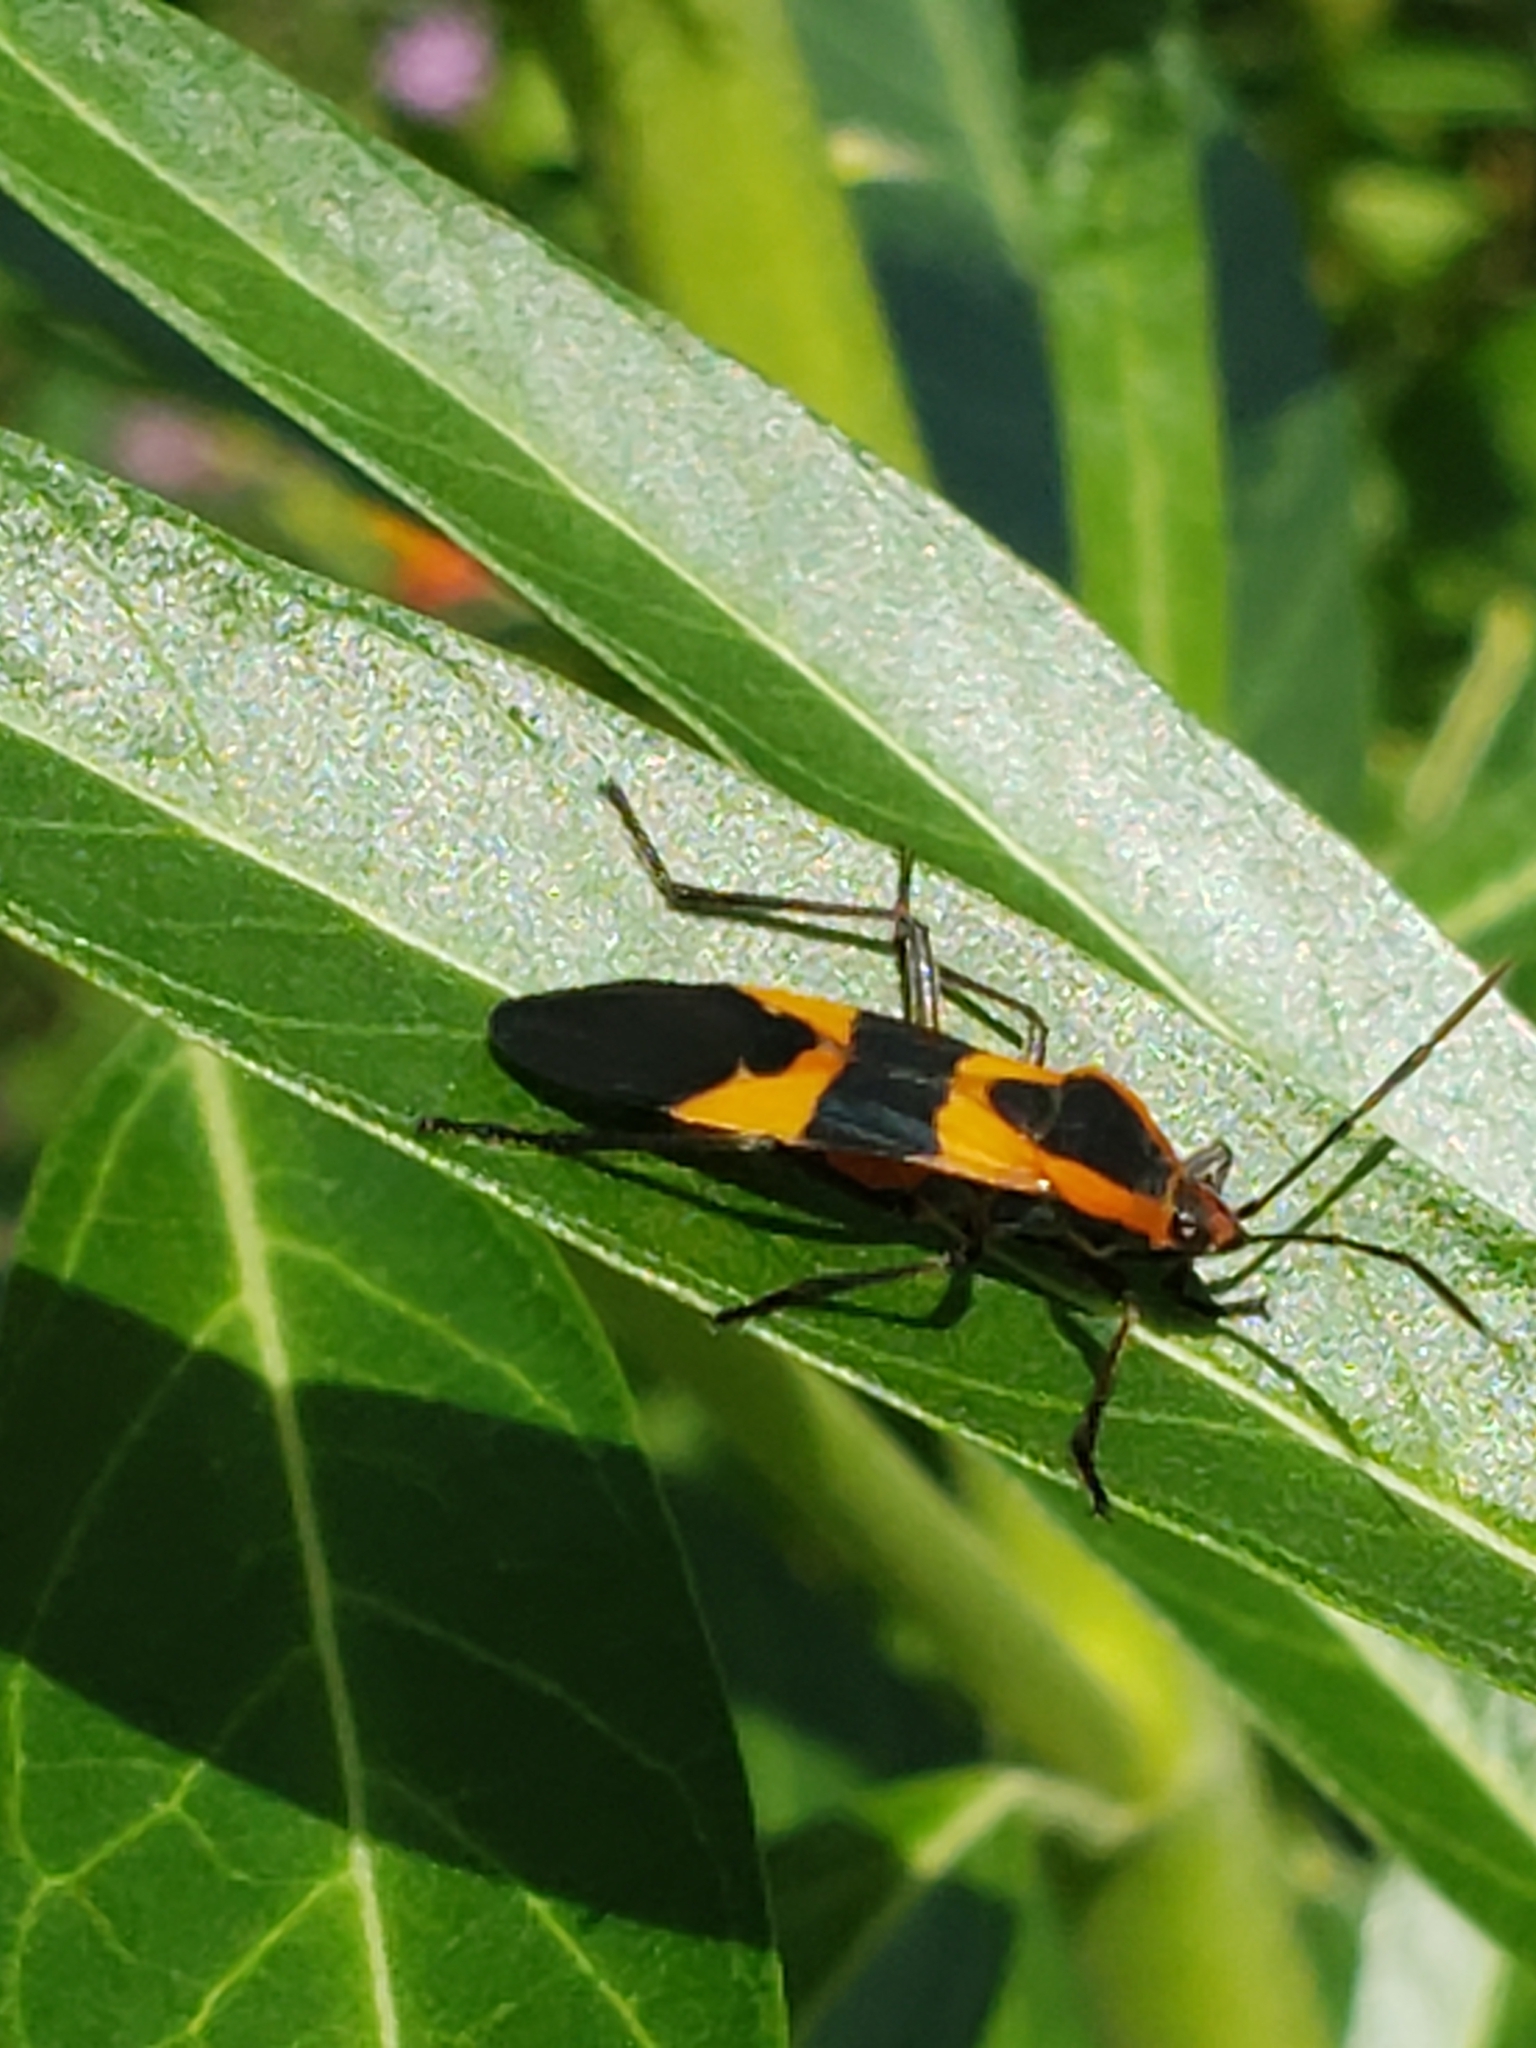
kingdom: Animalia
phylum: Arthropoda
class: Insecta
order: Hemiptera
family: Lygaeidae
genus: Oncopeltus
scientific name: Oncopeltus fasciatus
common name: Large milkweed bug
